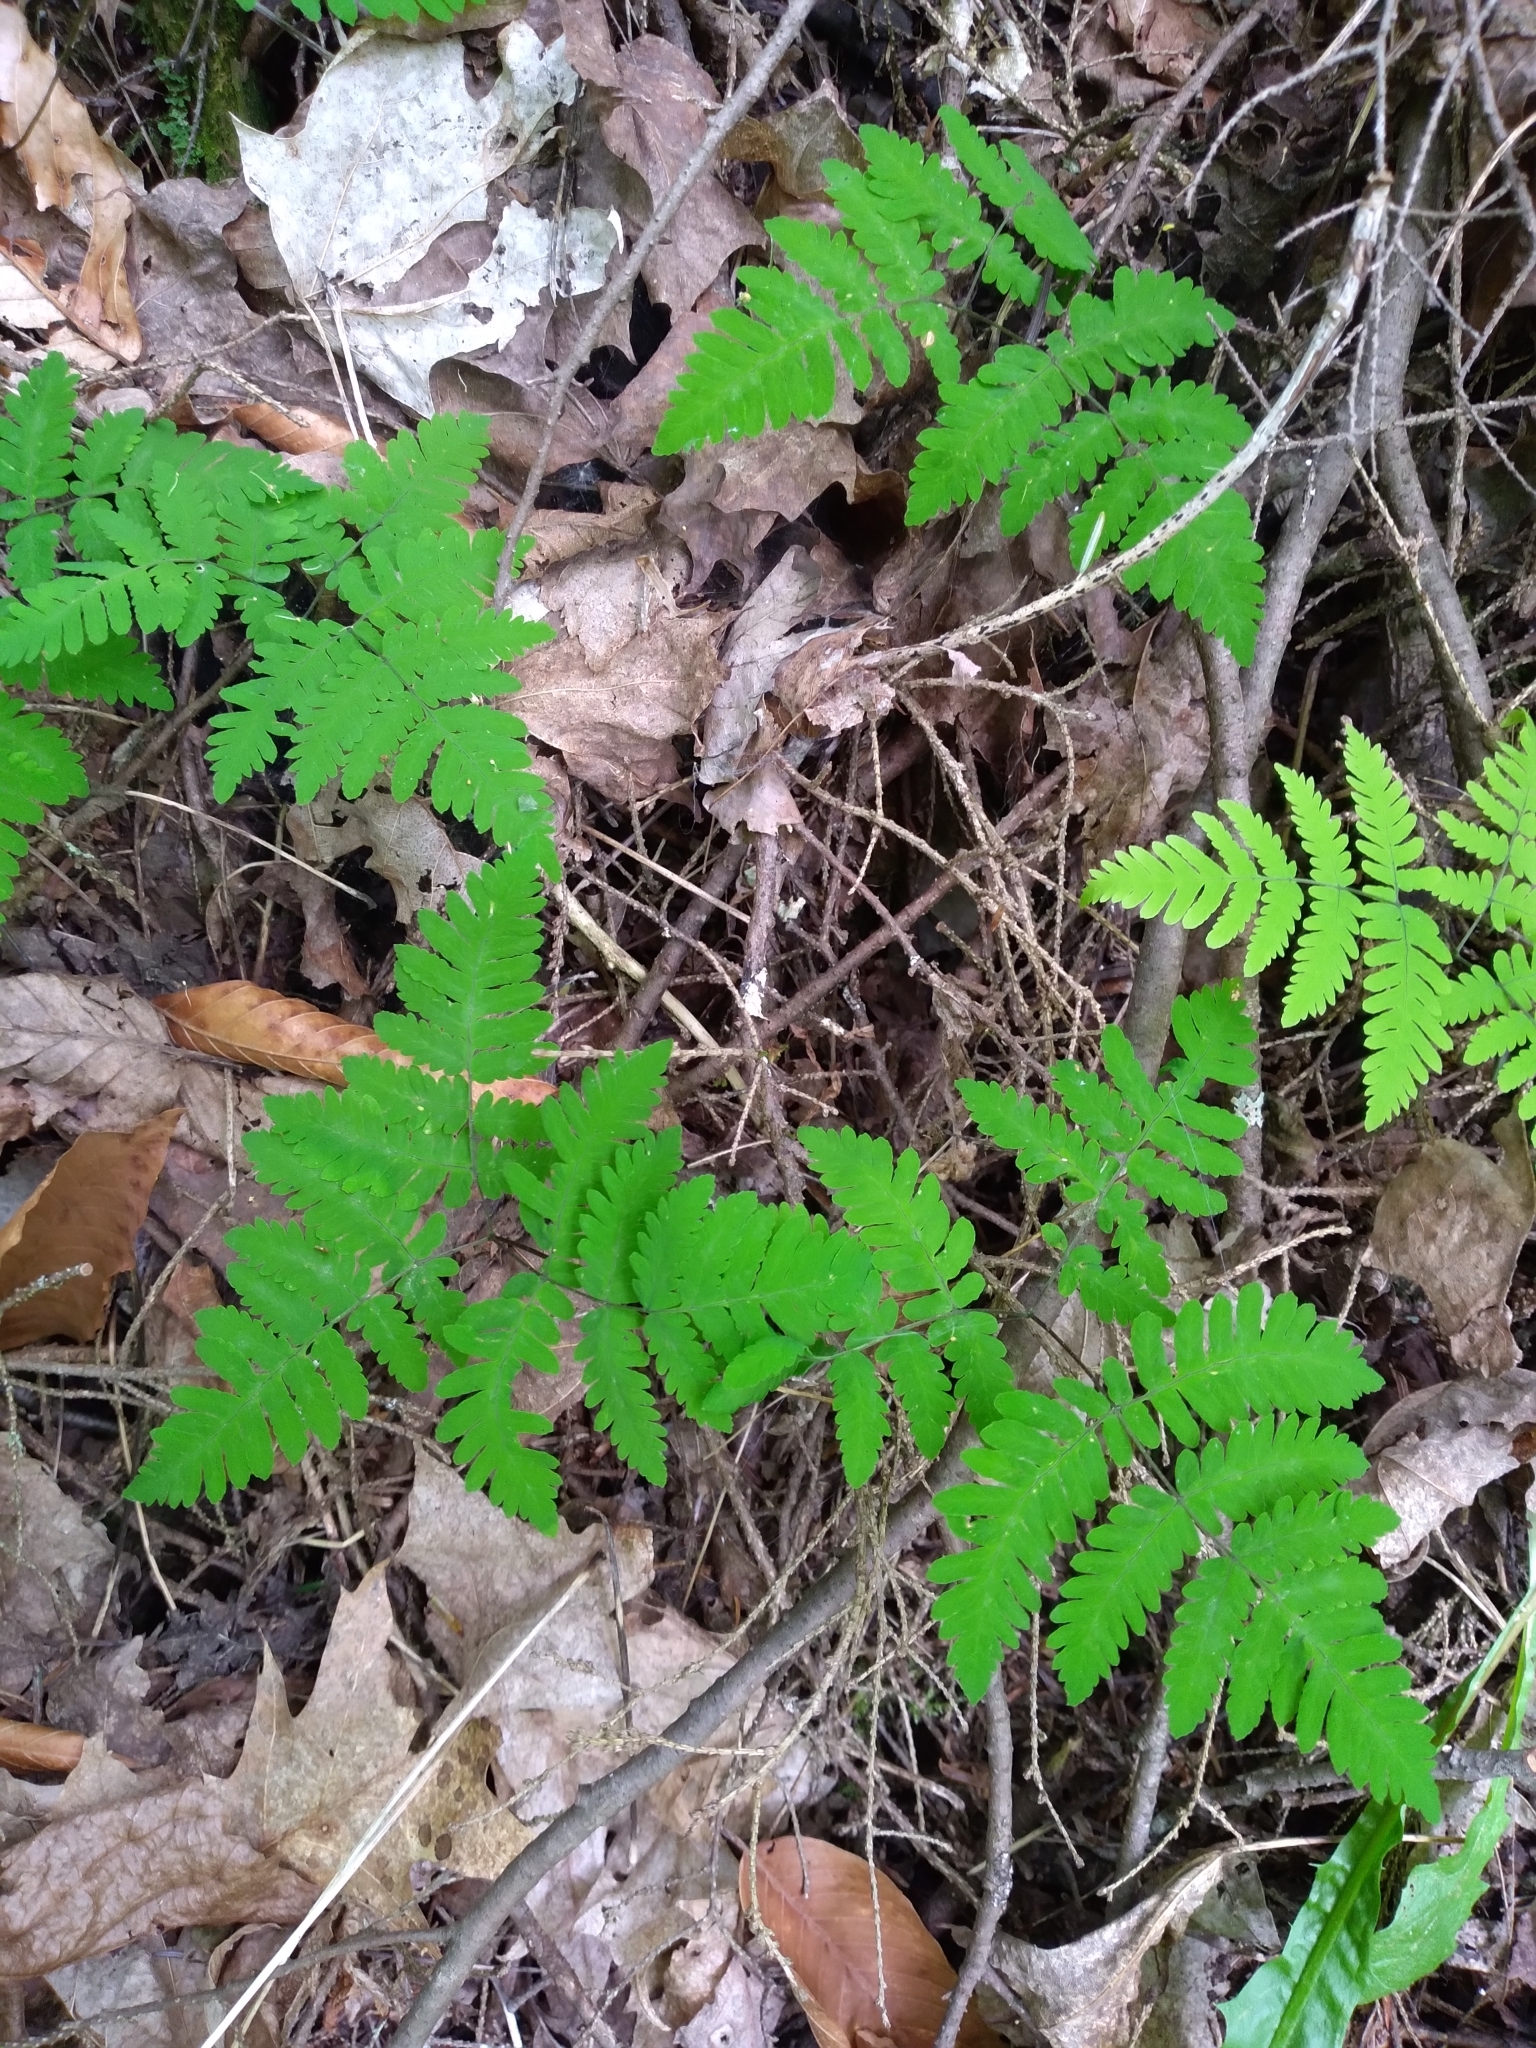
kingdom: Plantae
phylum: Tracheophyta
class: Polypodiopsida
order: Polypodiales
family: Cystopteridaceae
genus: Gymnocarpium
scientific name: Gymnocarpium dryopteris
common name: Oak fern
